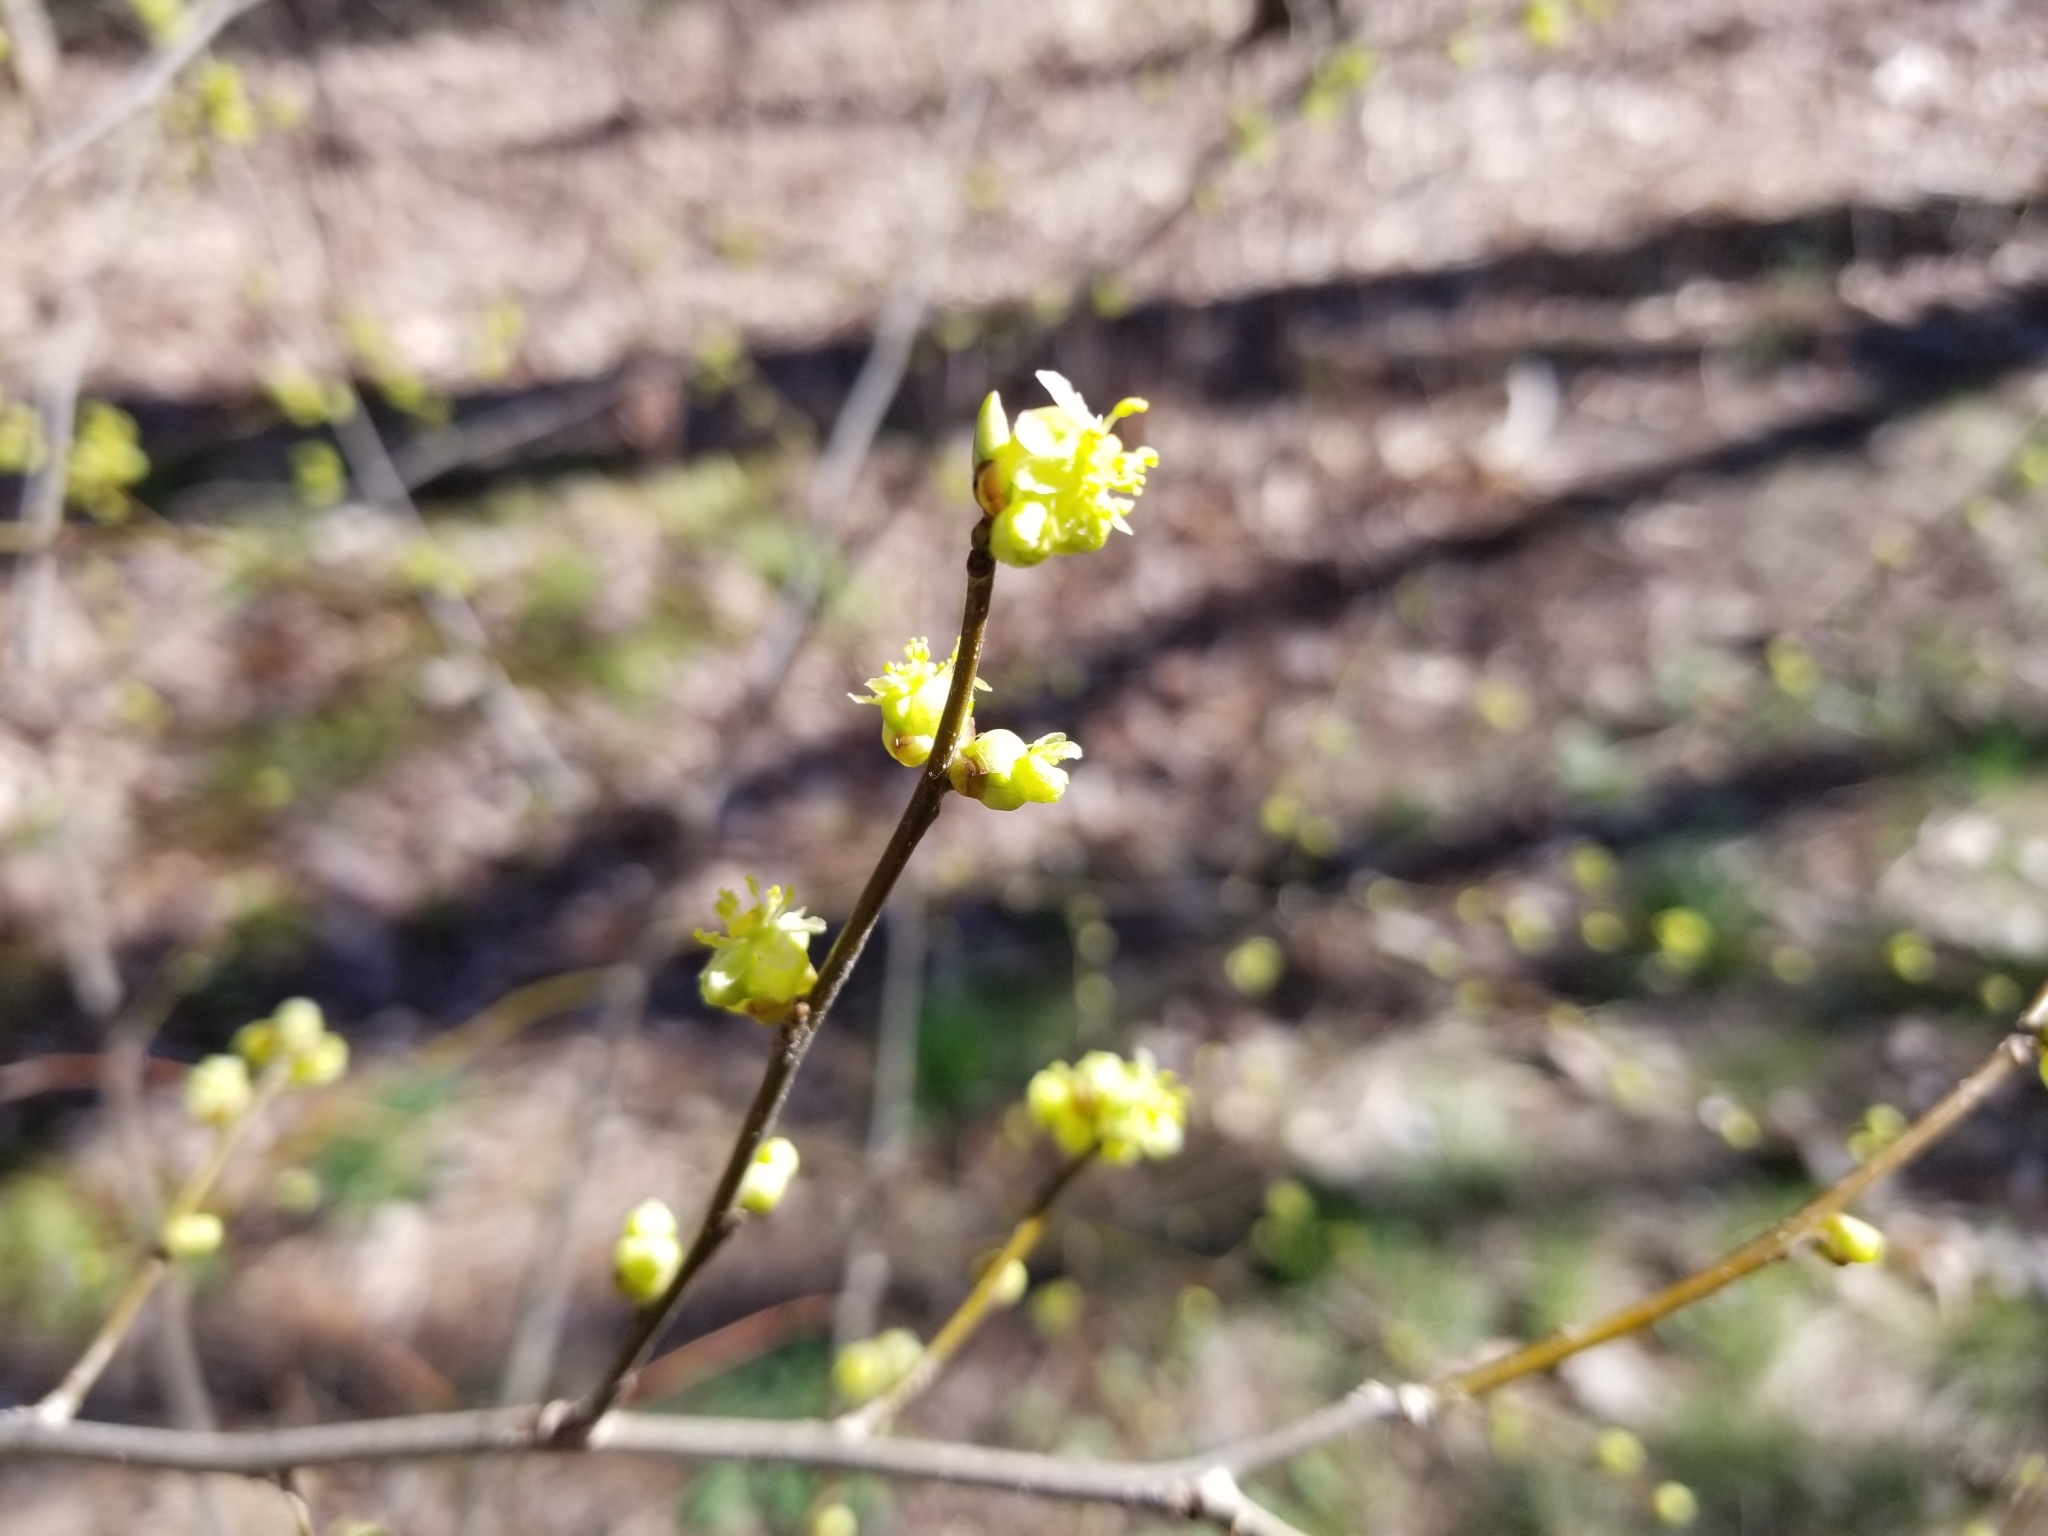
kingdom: Plantae
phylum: Tracheophyta
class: Magnoliopsida
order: Laurales
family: Lauraceae
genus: Lindera
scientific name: Lindera benzoin
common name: Spicebush
